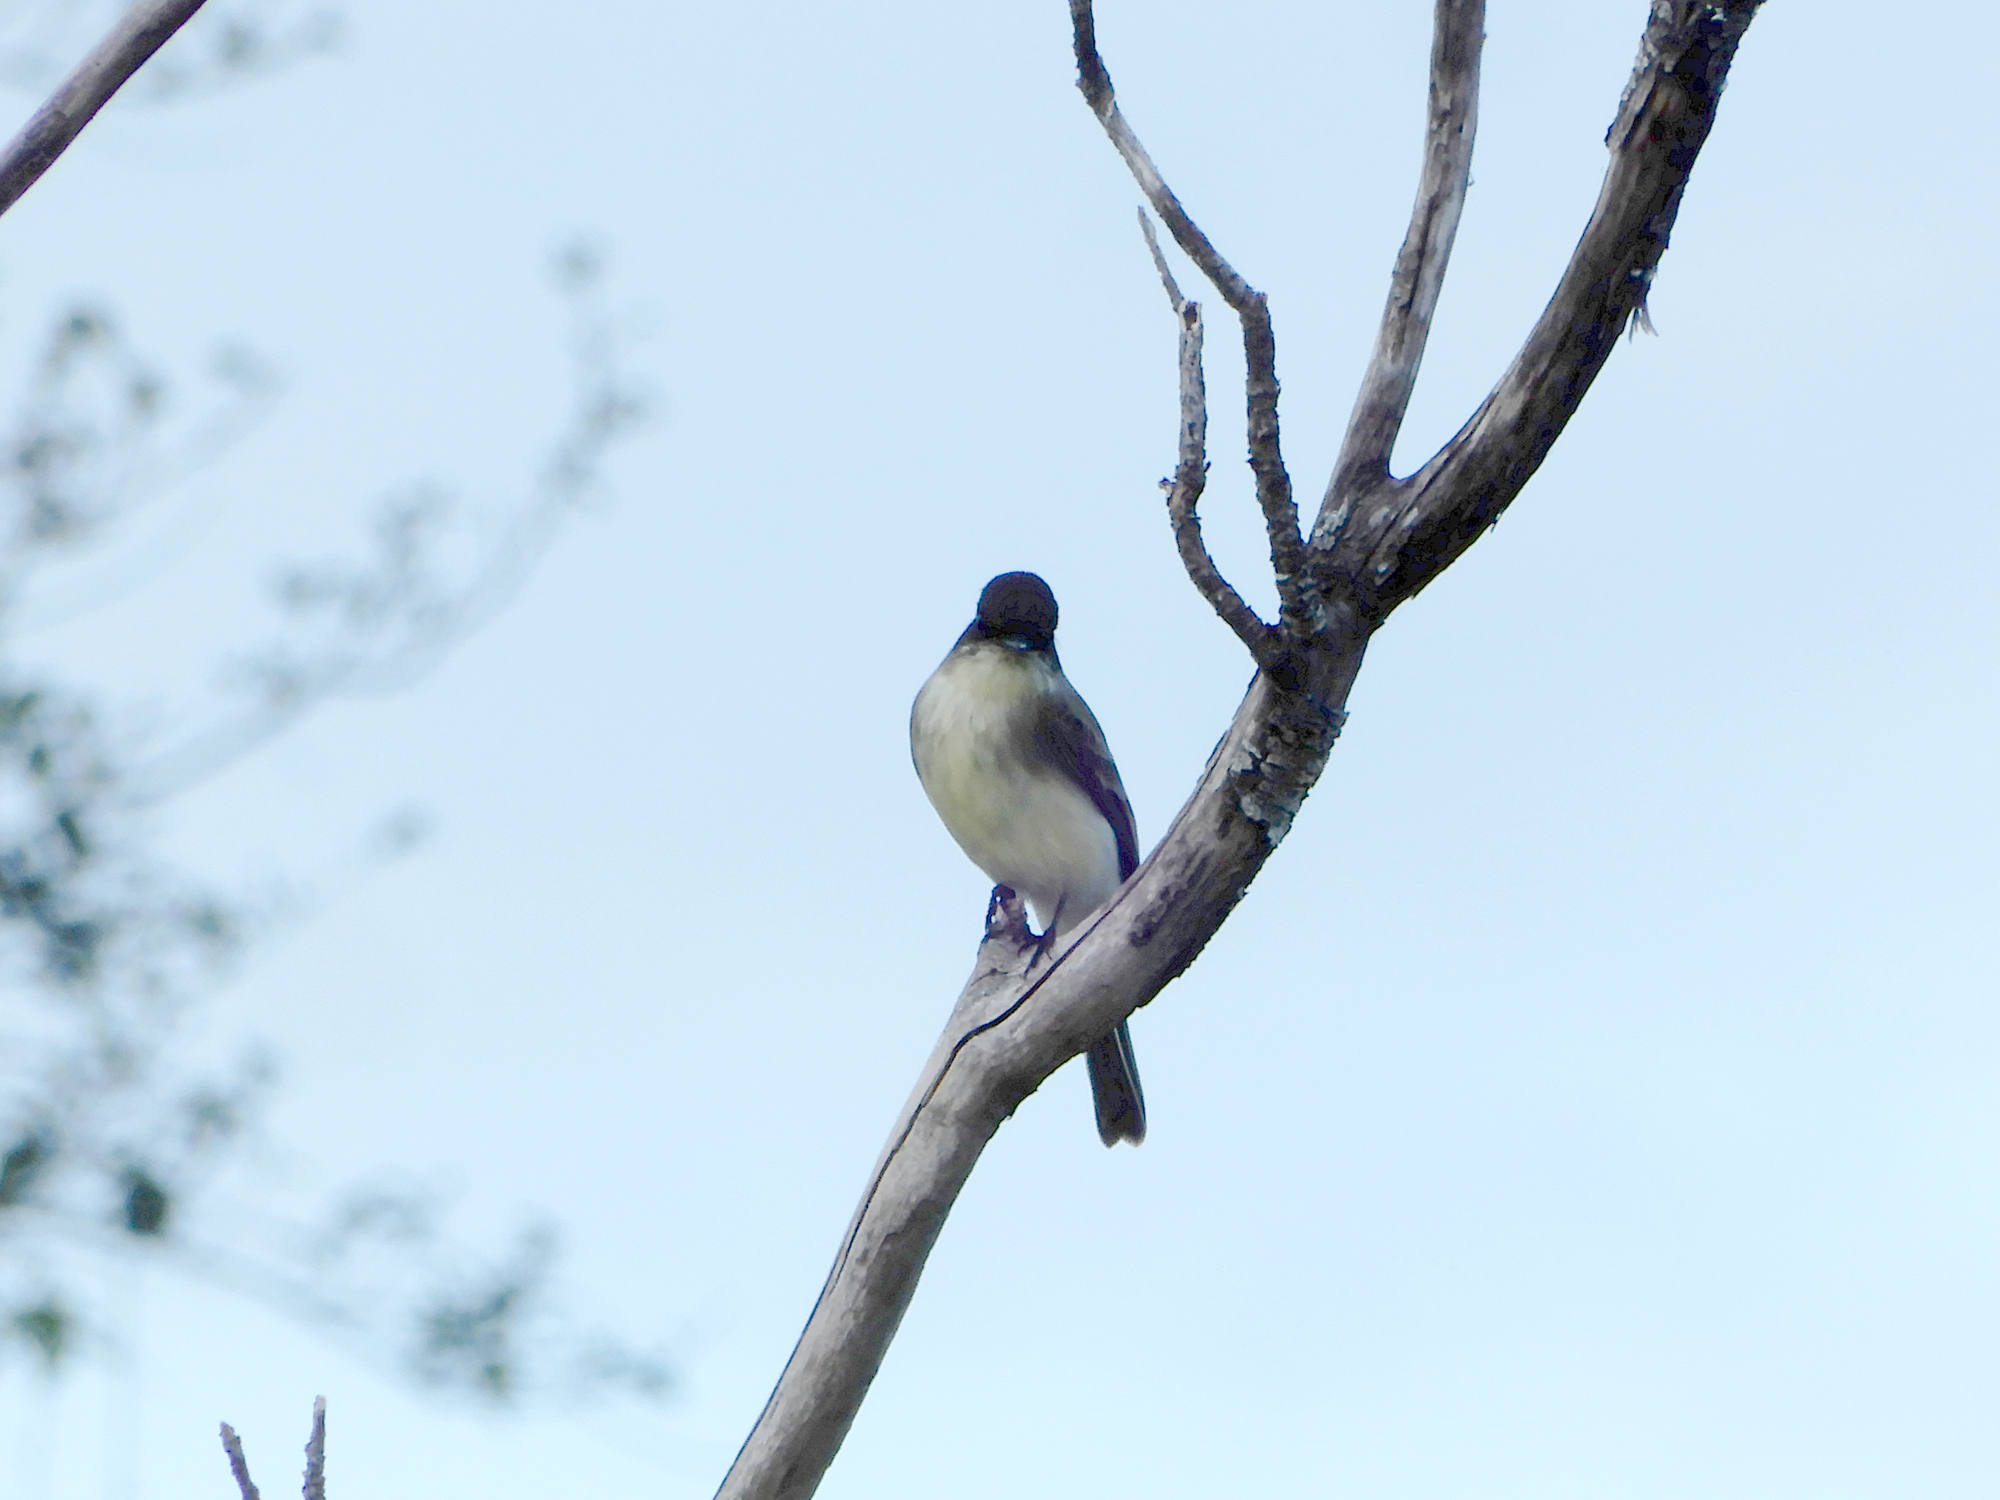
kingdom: Animalia
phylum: Chordata
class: Aves
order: Passeriformes
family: Tyrannidae
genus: Sayornis
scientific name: Sayornis phoebe
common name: Eastern phoebe
